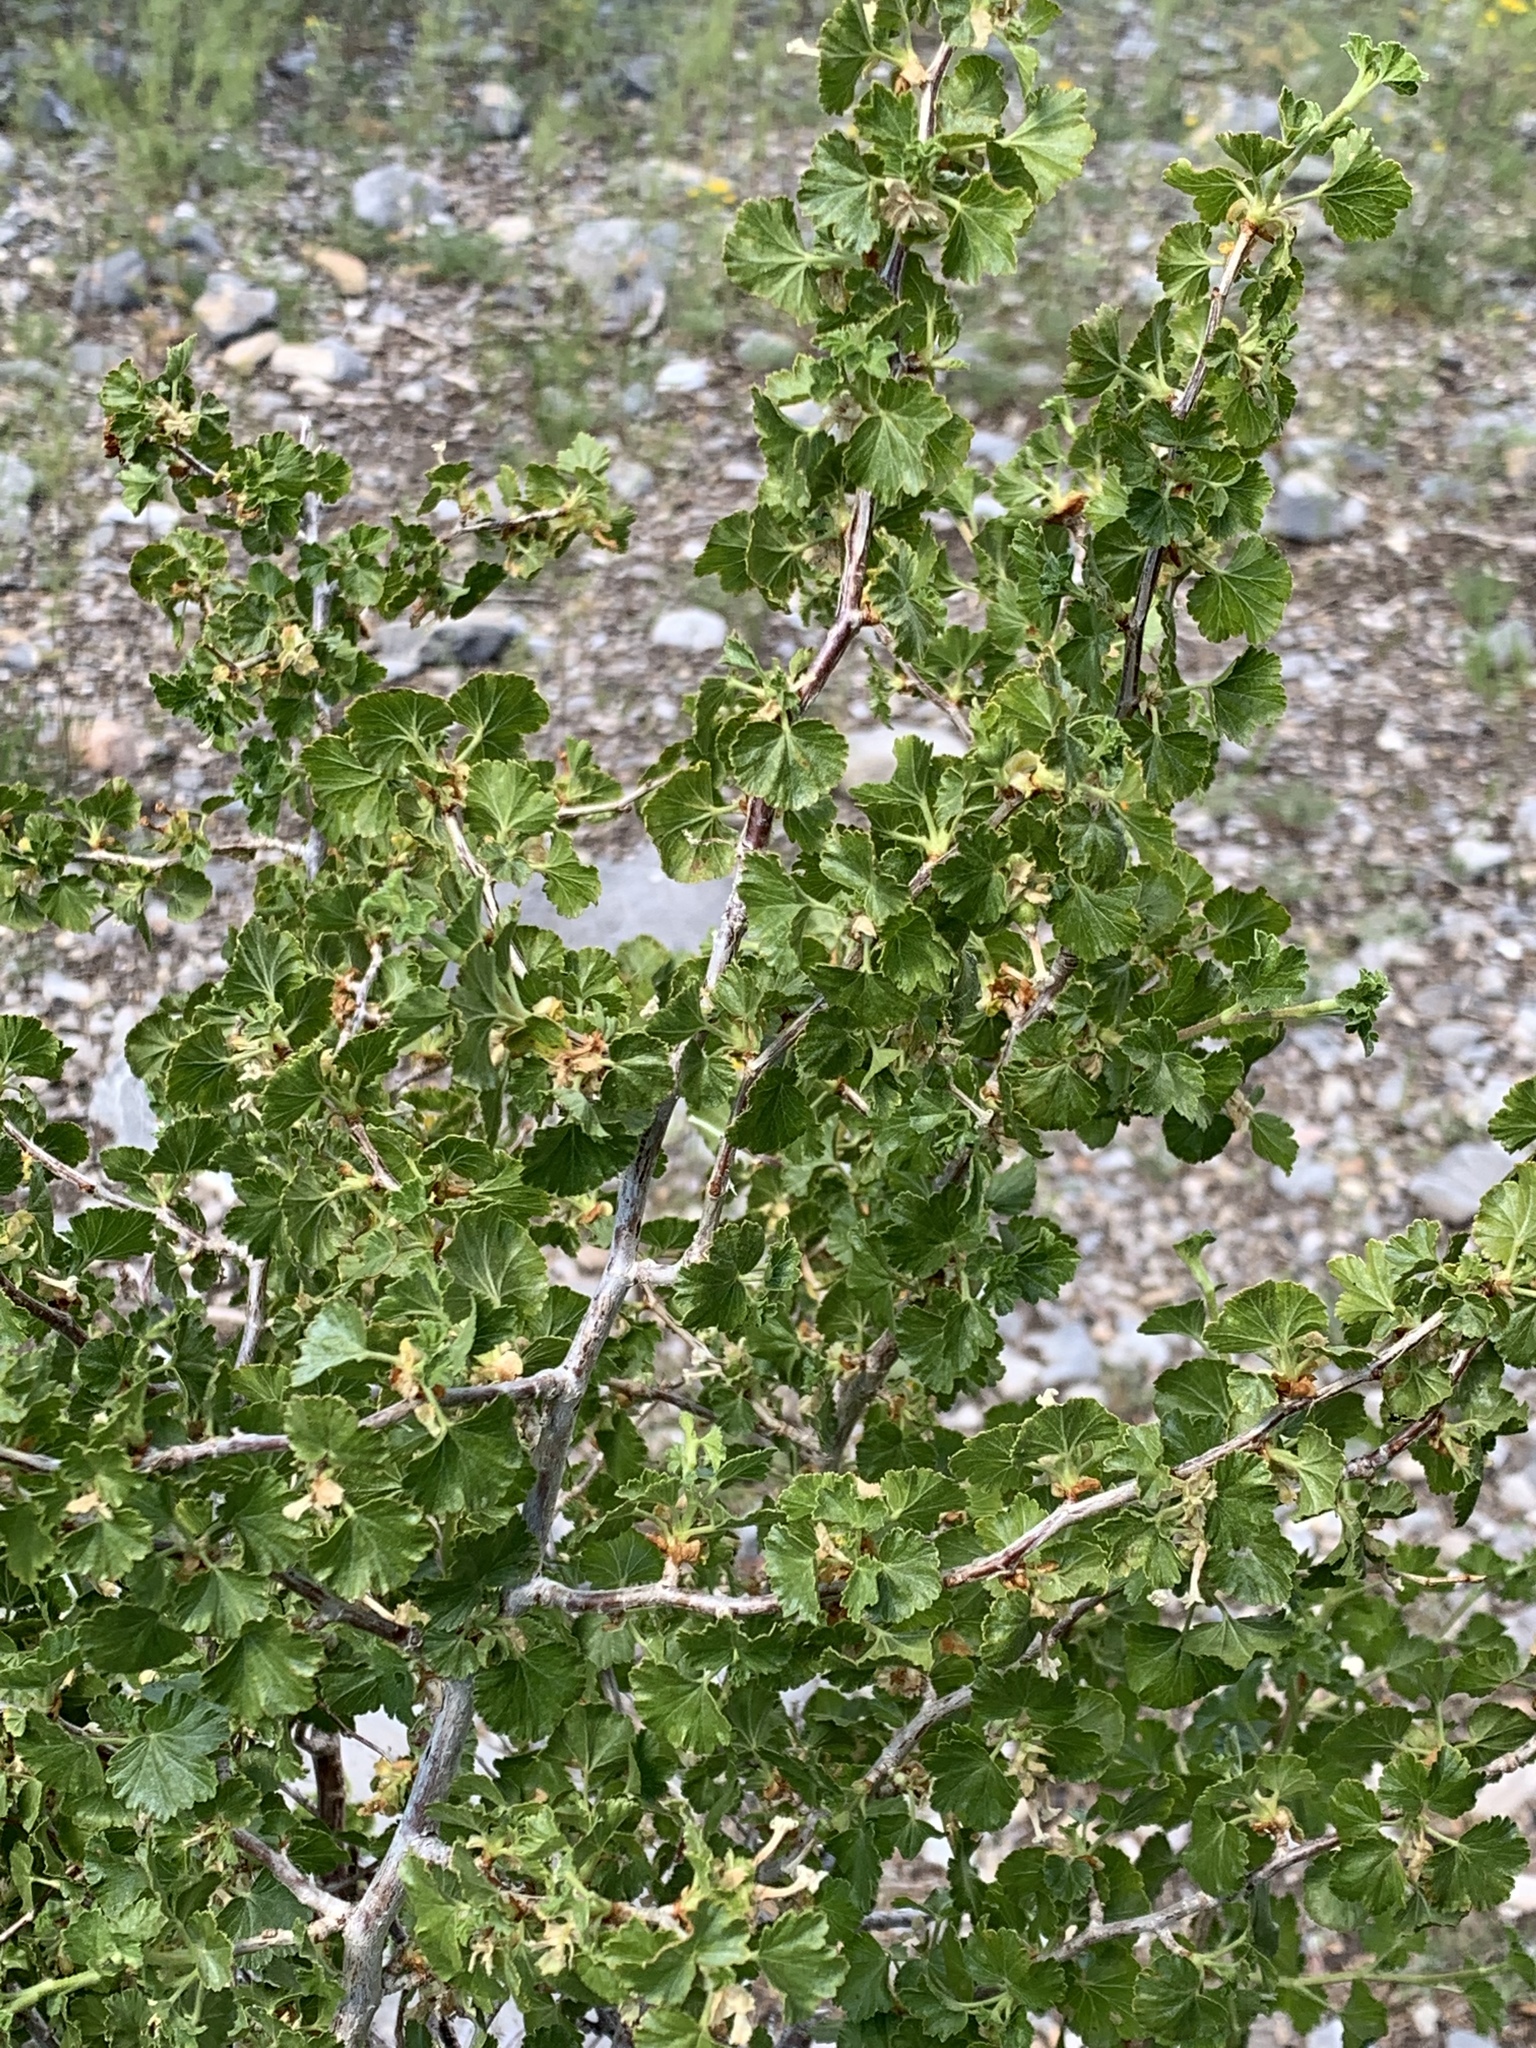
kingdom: Plantae
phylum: Tracheophyta
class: Magnoliopsida
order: Saxifragales
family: Grossulariaceae
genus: Ribes
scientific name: Ribes cereum
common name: Wax currant
